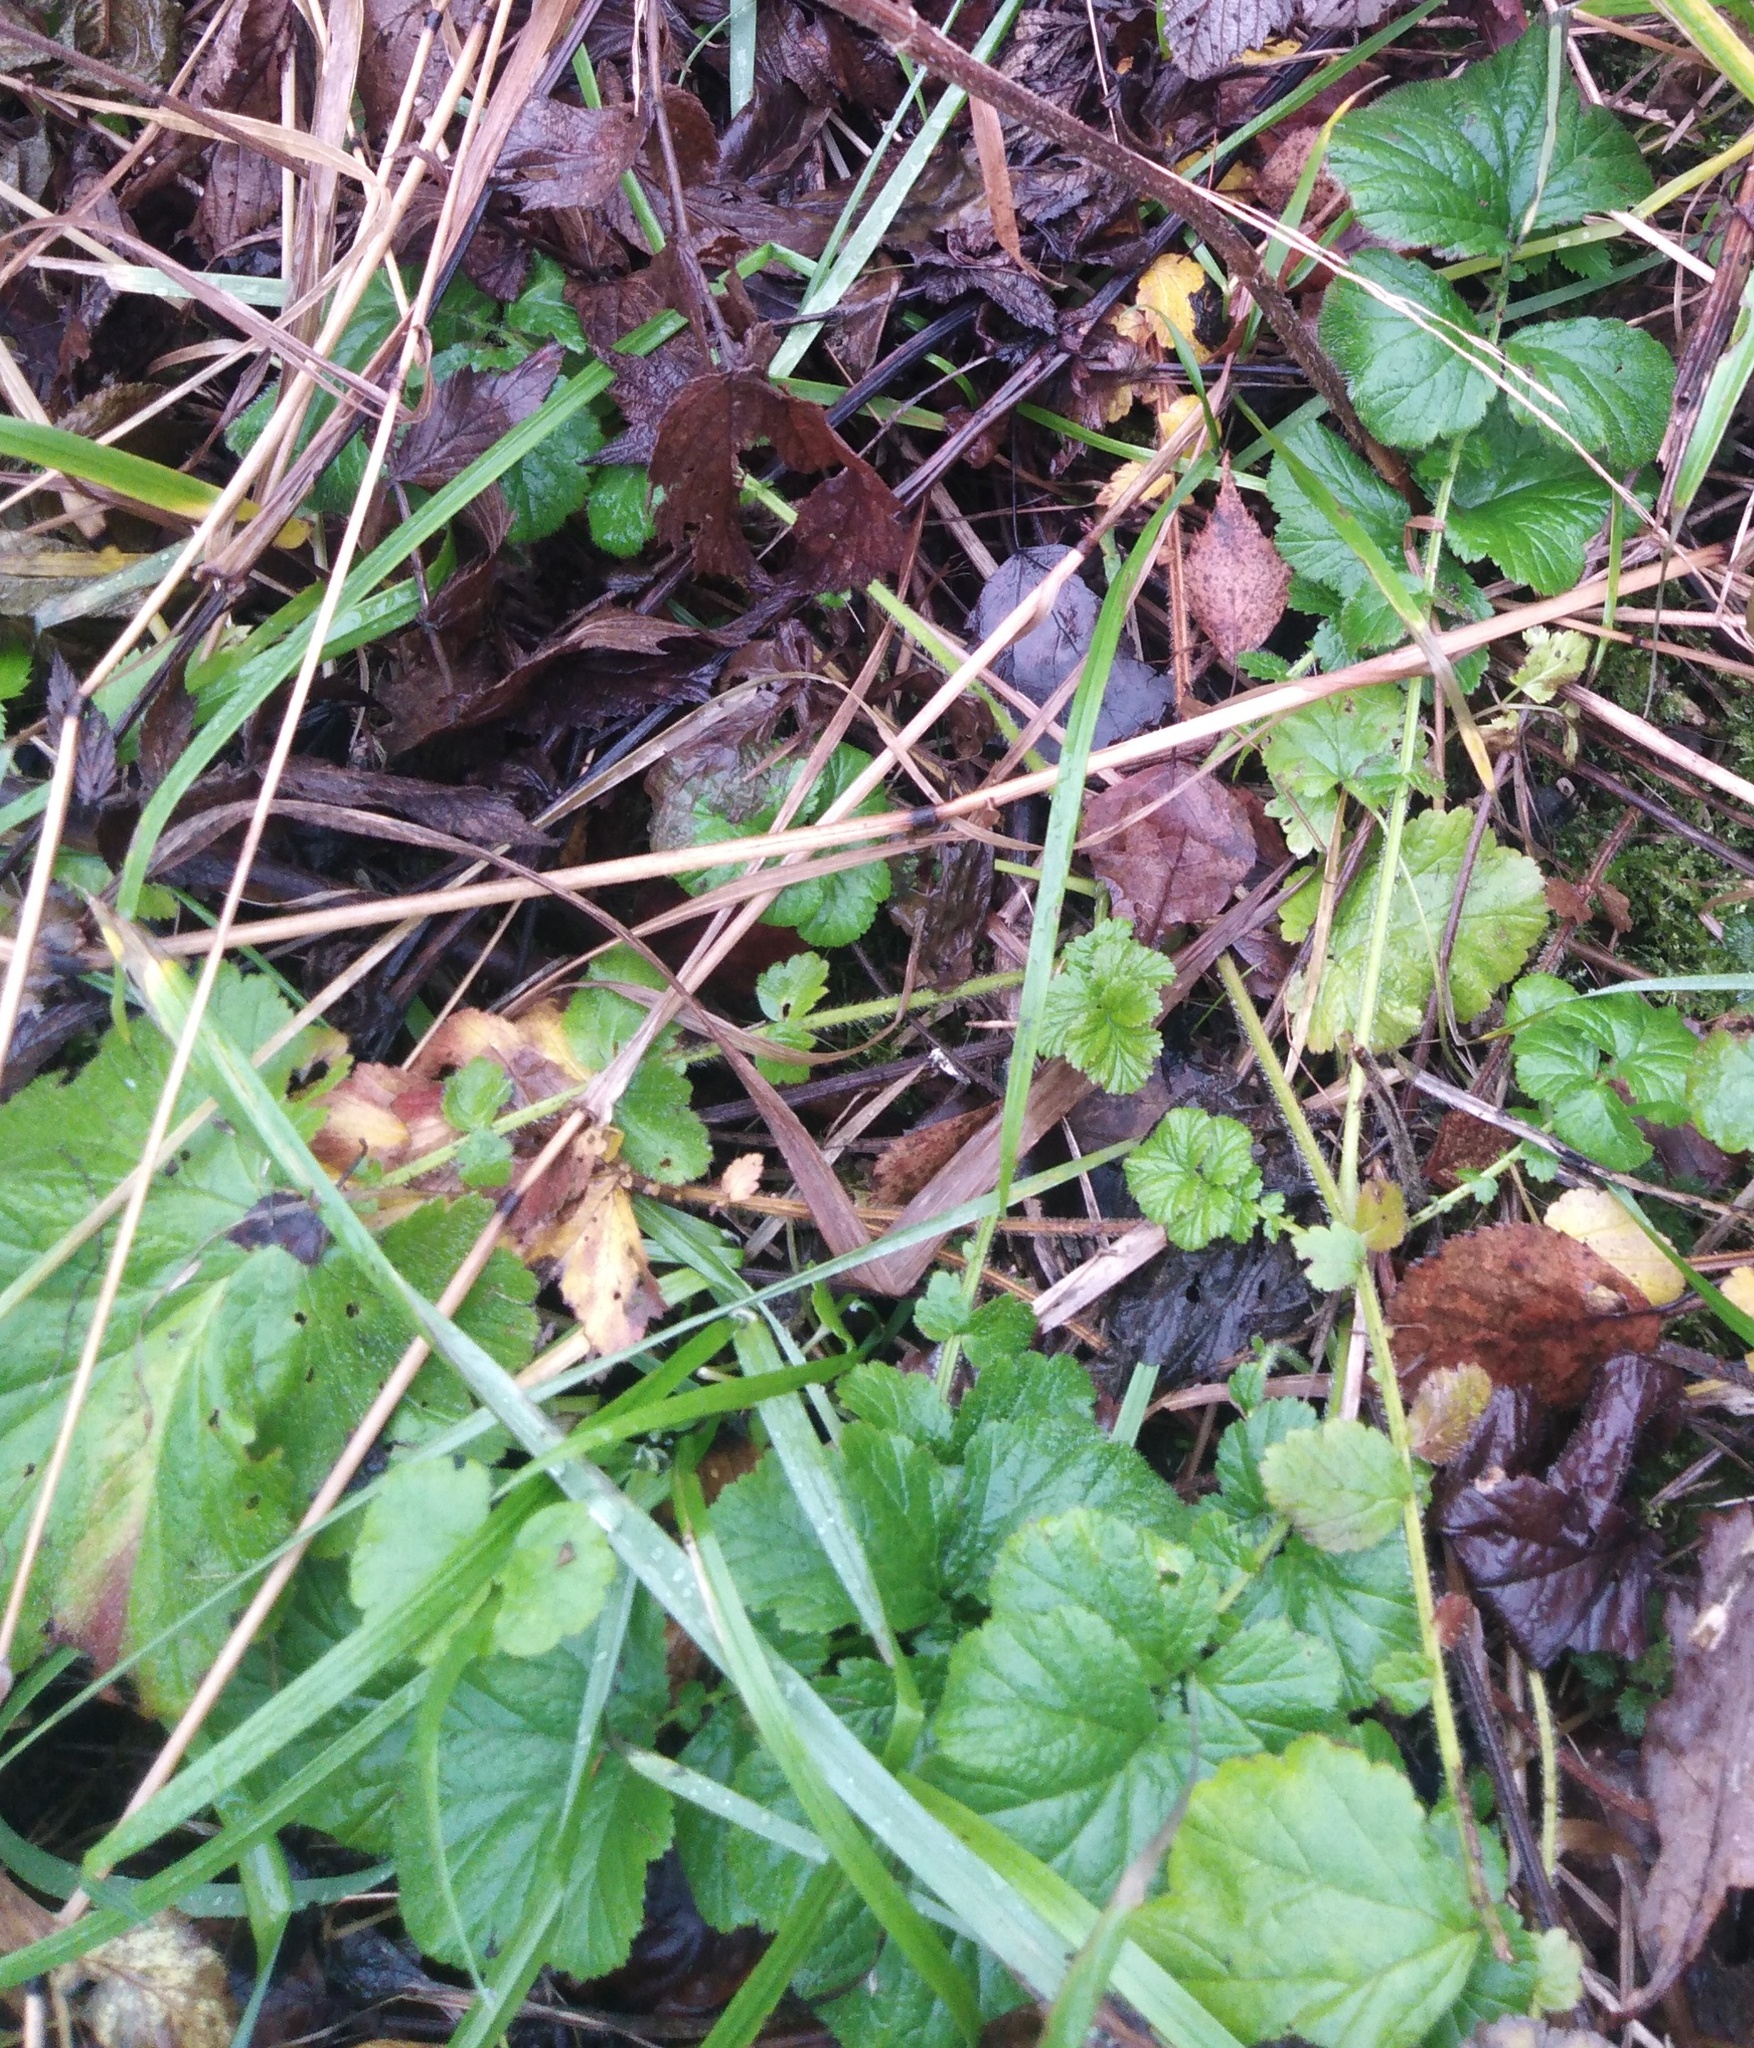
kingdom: Plantae
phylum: Tracheophyta
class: Magnoliopsida
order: Rosales
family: Rosaceae
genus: Geum
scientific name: Geum
